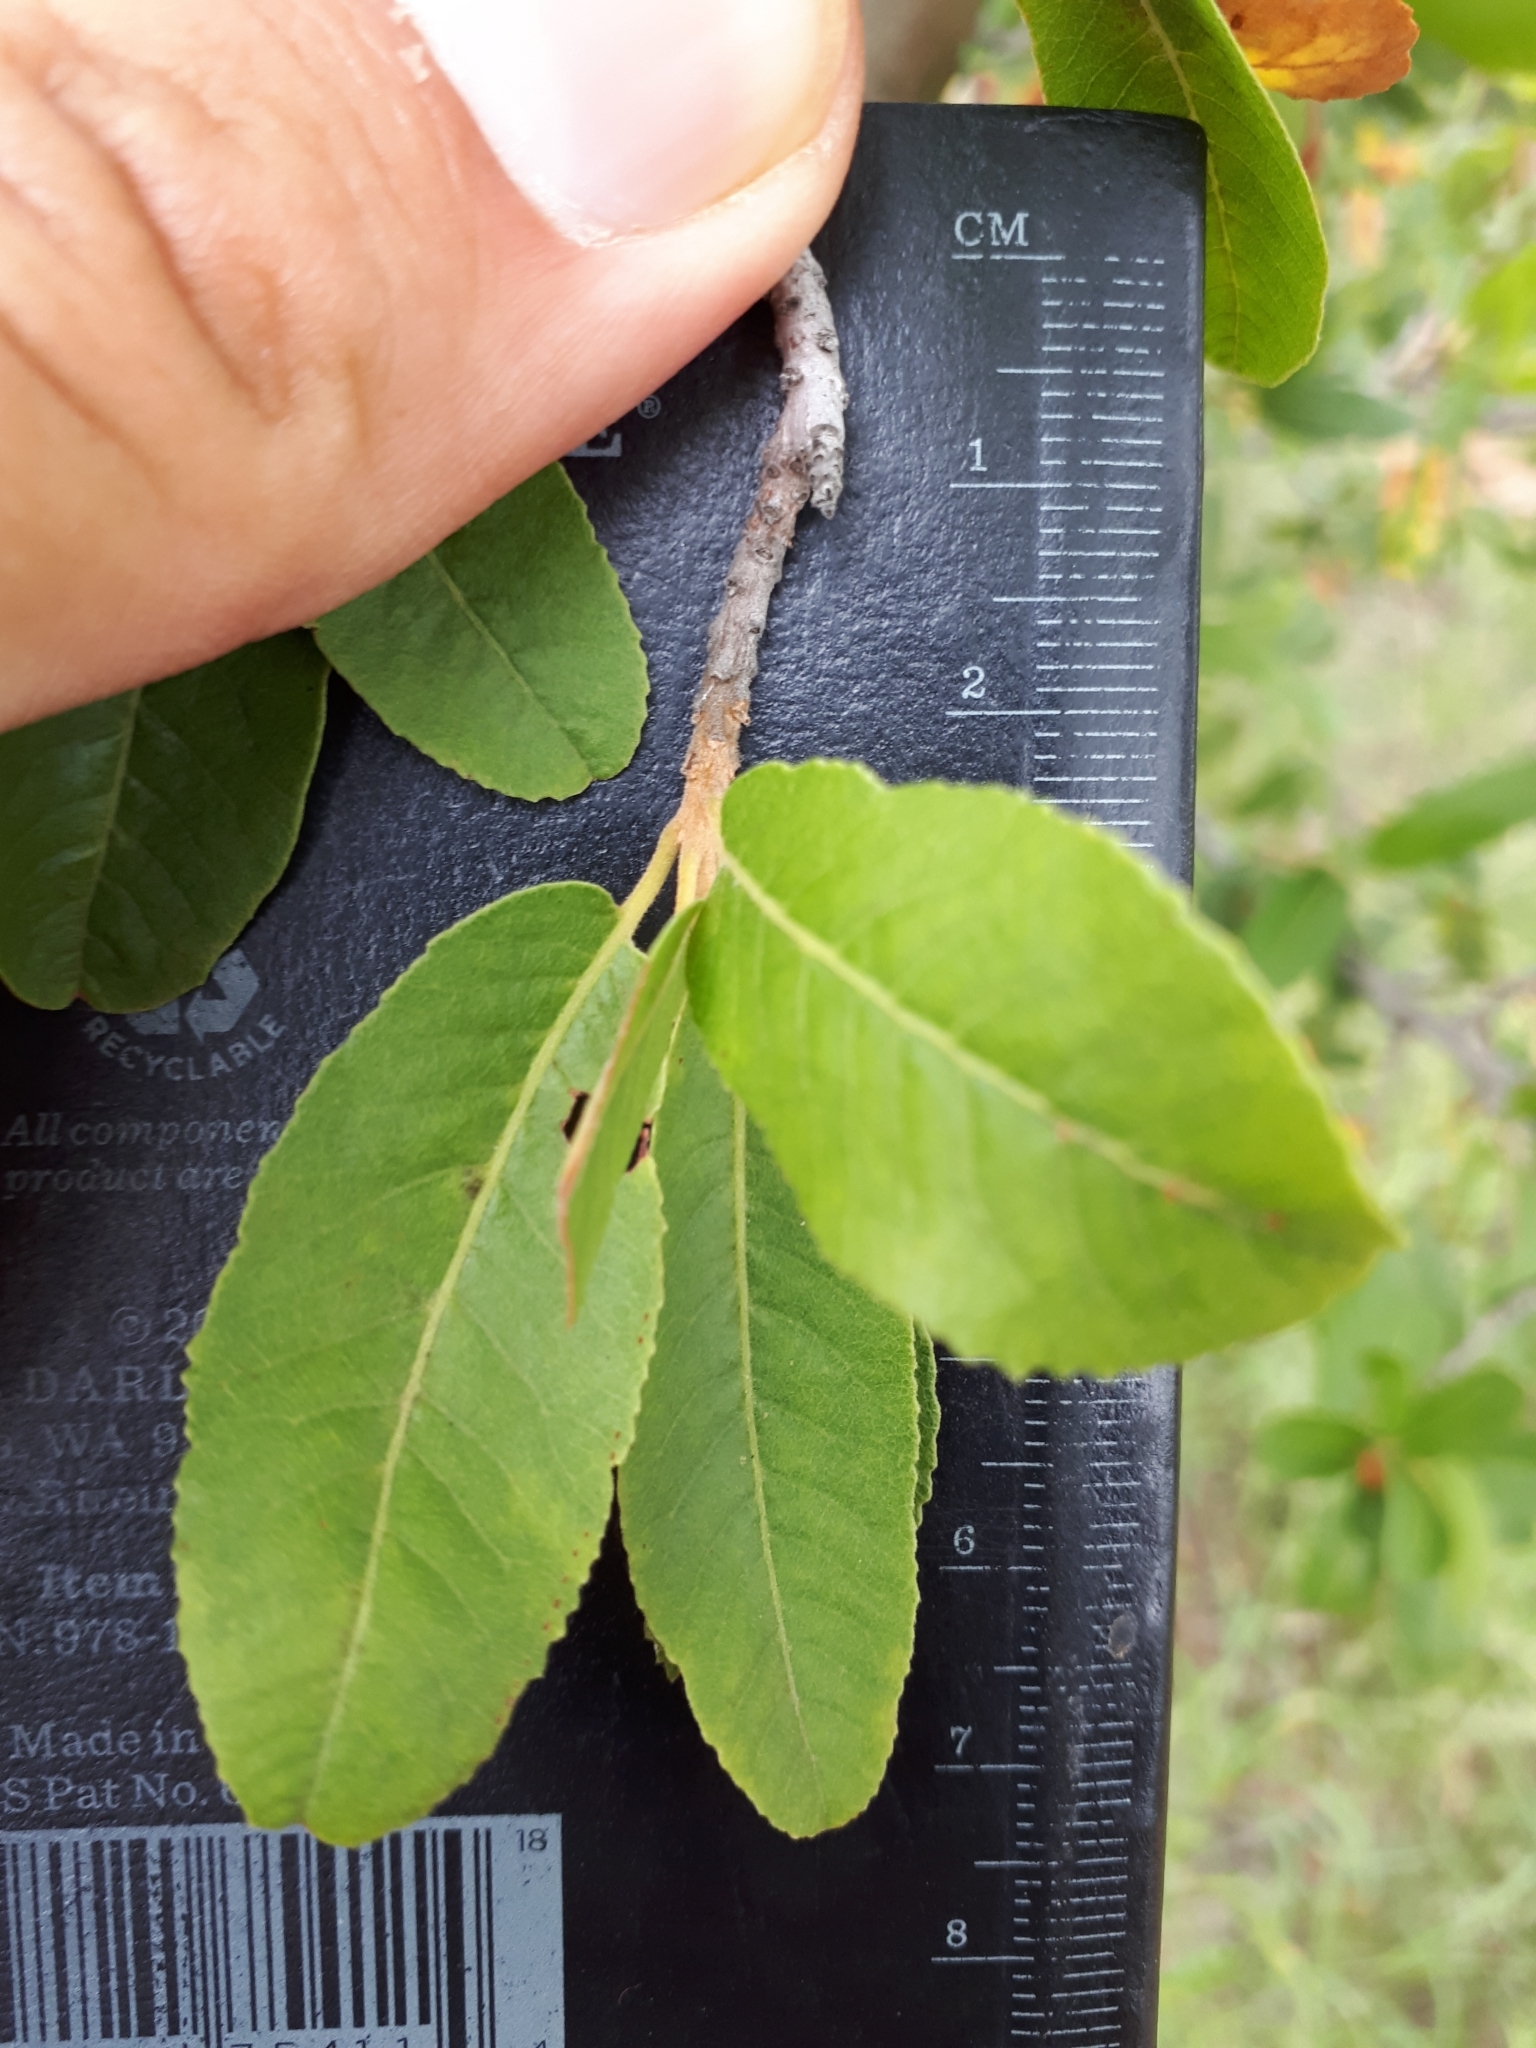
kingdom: Plantae
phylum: Tracheophyta
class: Magnoliopsida
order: Sapindales
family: Sapindaceae
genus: Pappea
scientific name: Pappea capensis
